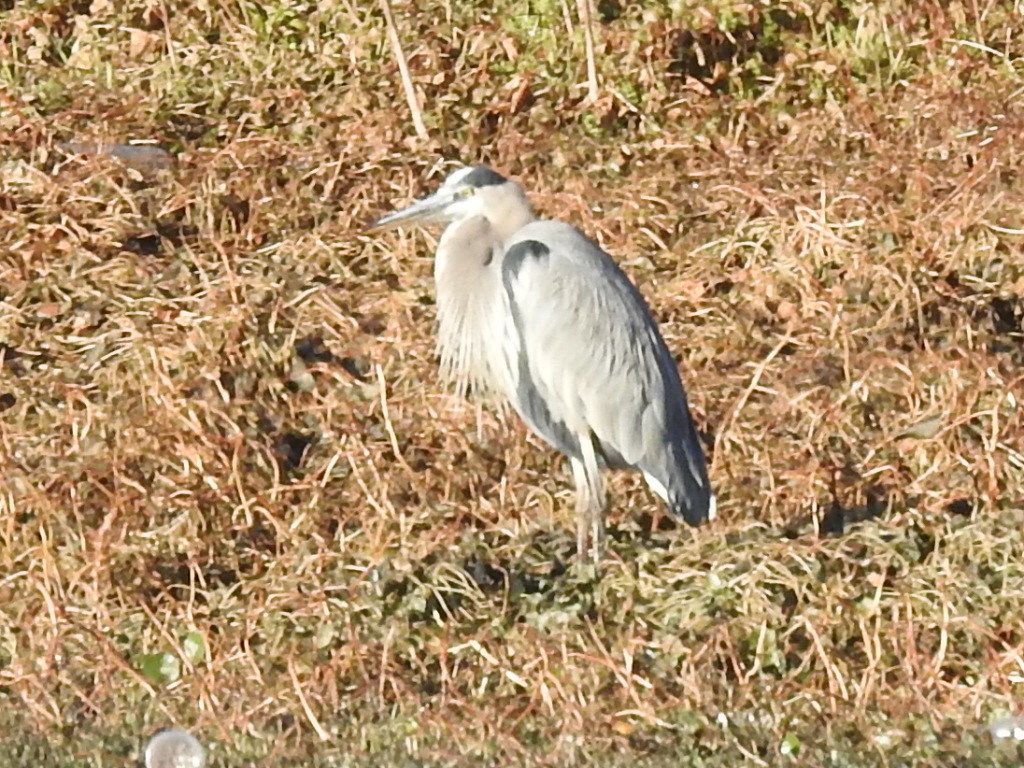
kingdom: Animalia
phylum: Chordata
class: Aves
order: Pelecaniformes
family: Ardeidae
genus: Ardea
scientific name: Ardea herodias
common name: Great blue heron
